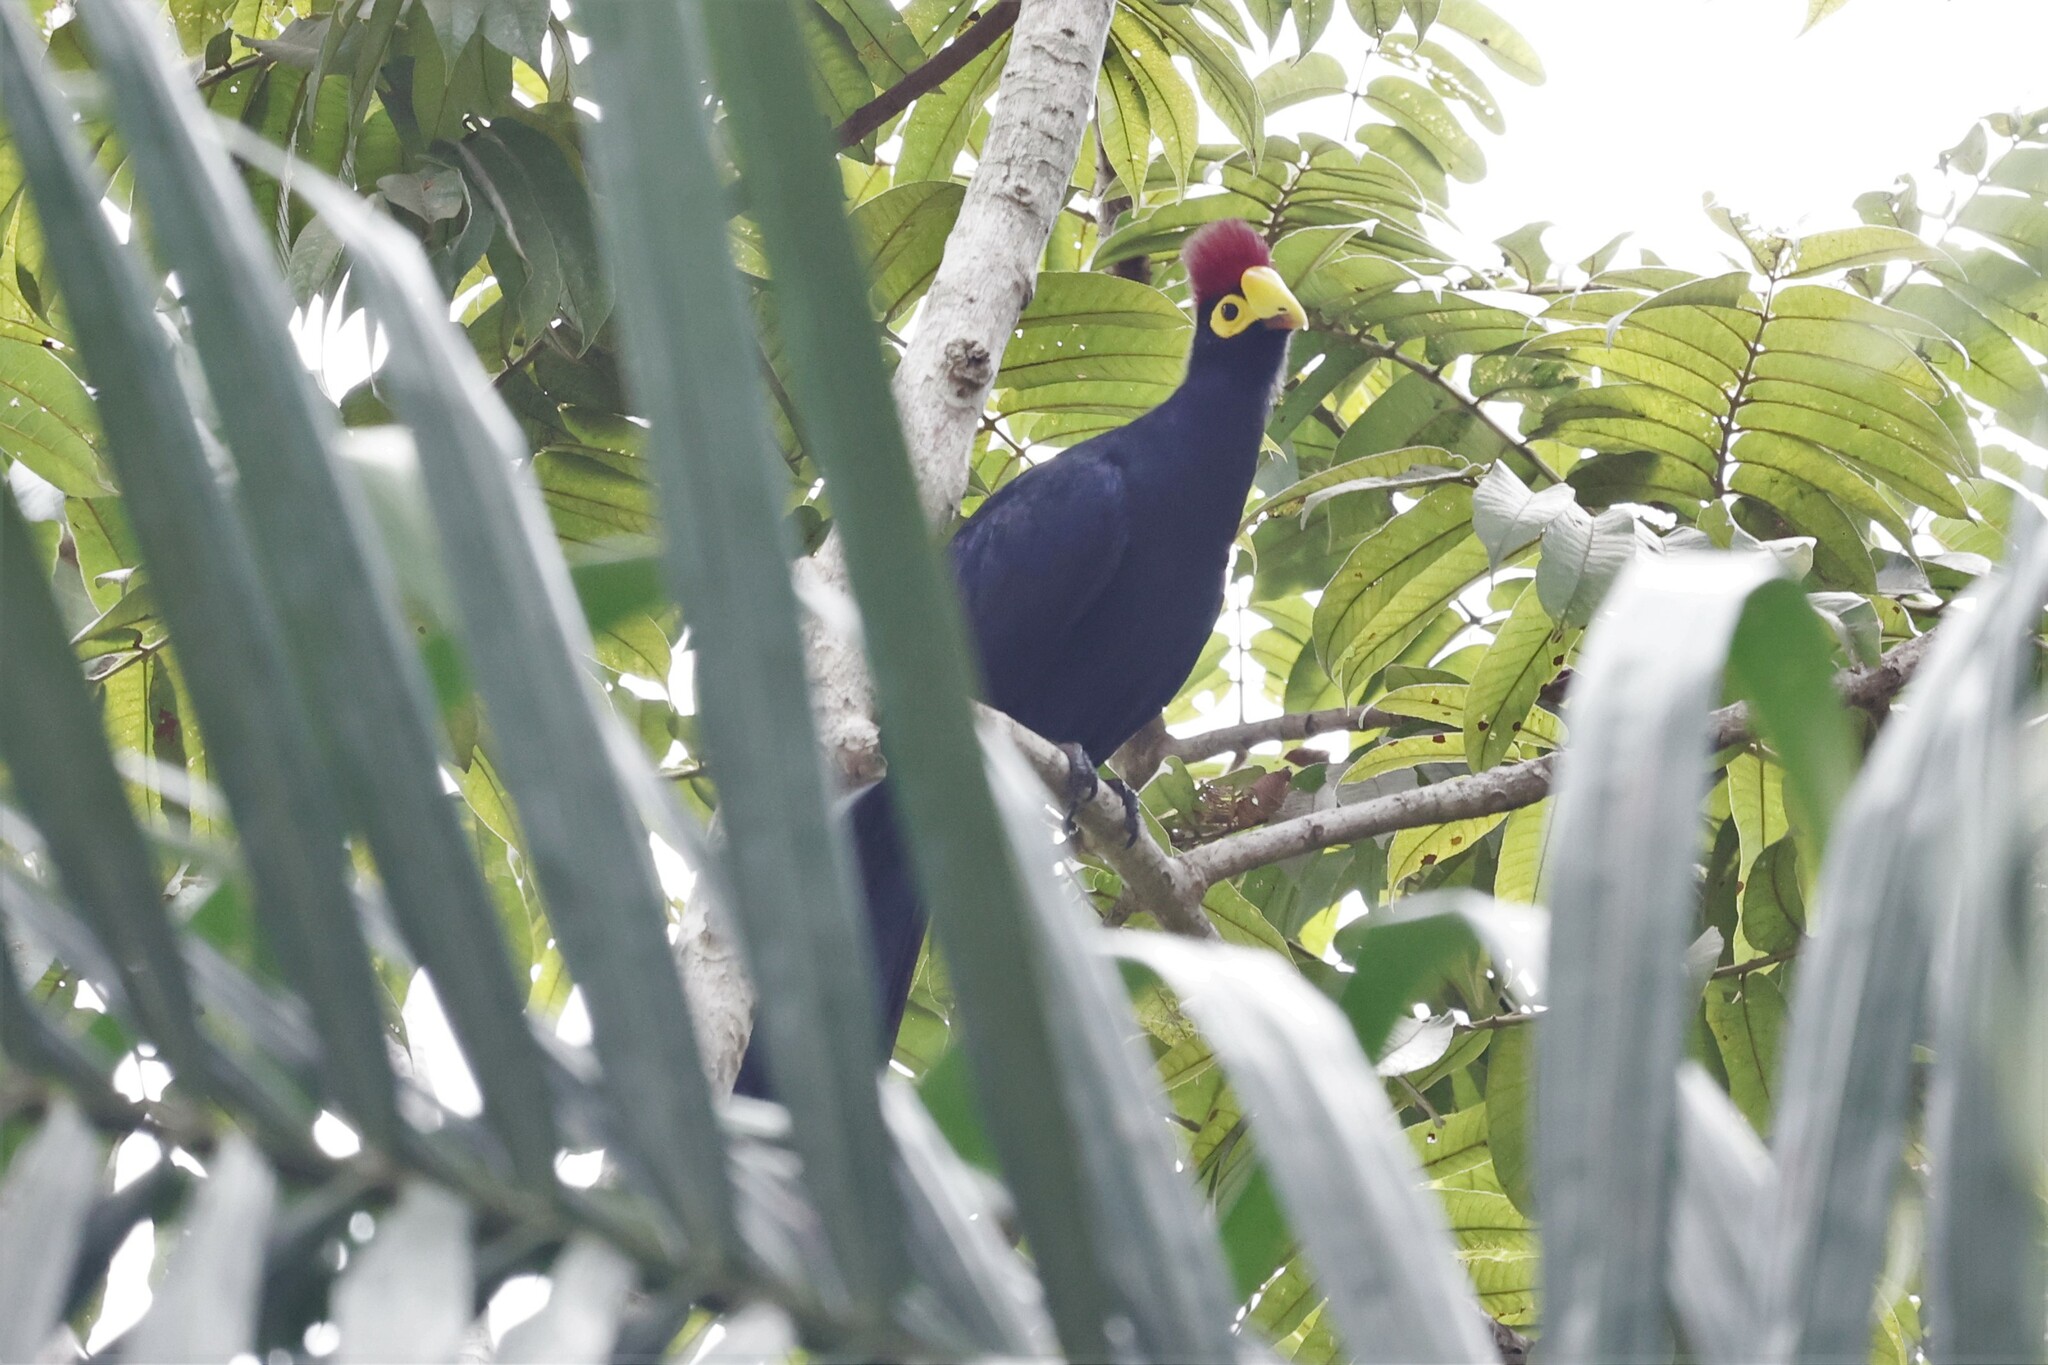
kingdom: Animalia
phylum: Chordata
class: Aves
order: Musophagiformes
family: Musophagidae
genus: Musophaga
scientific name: Musophaga rossae
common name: Ross's turaco
